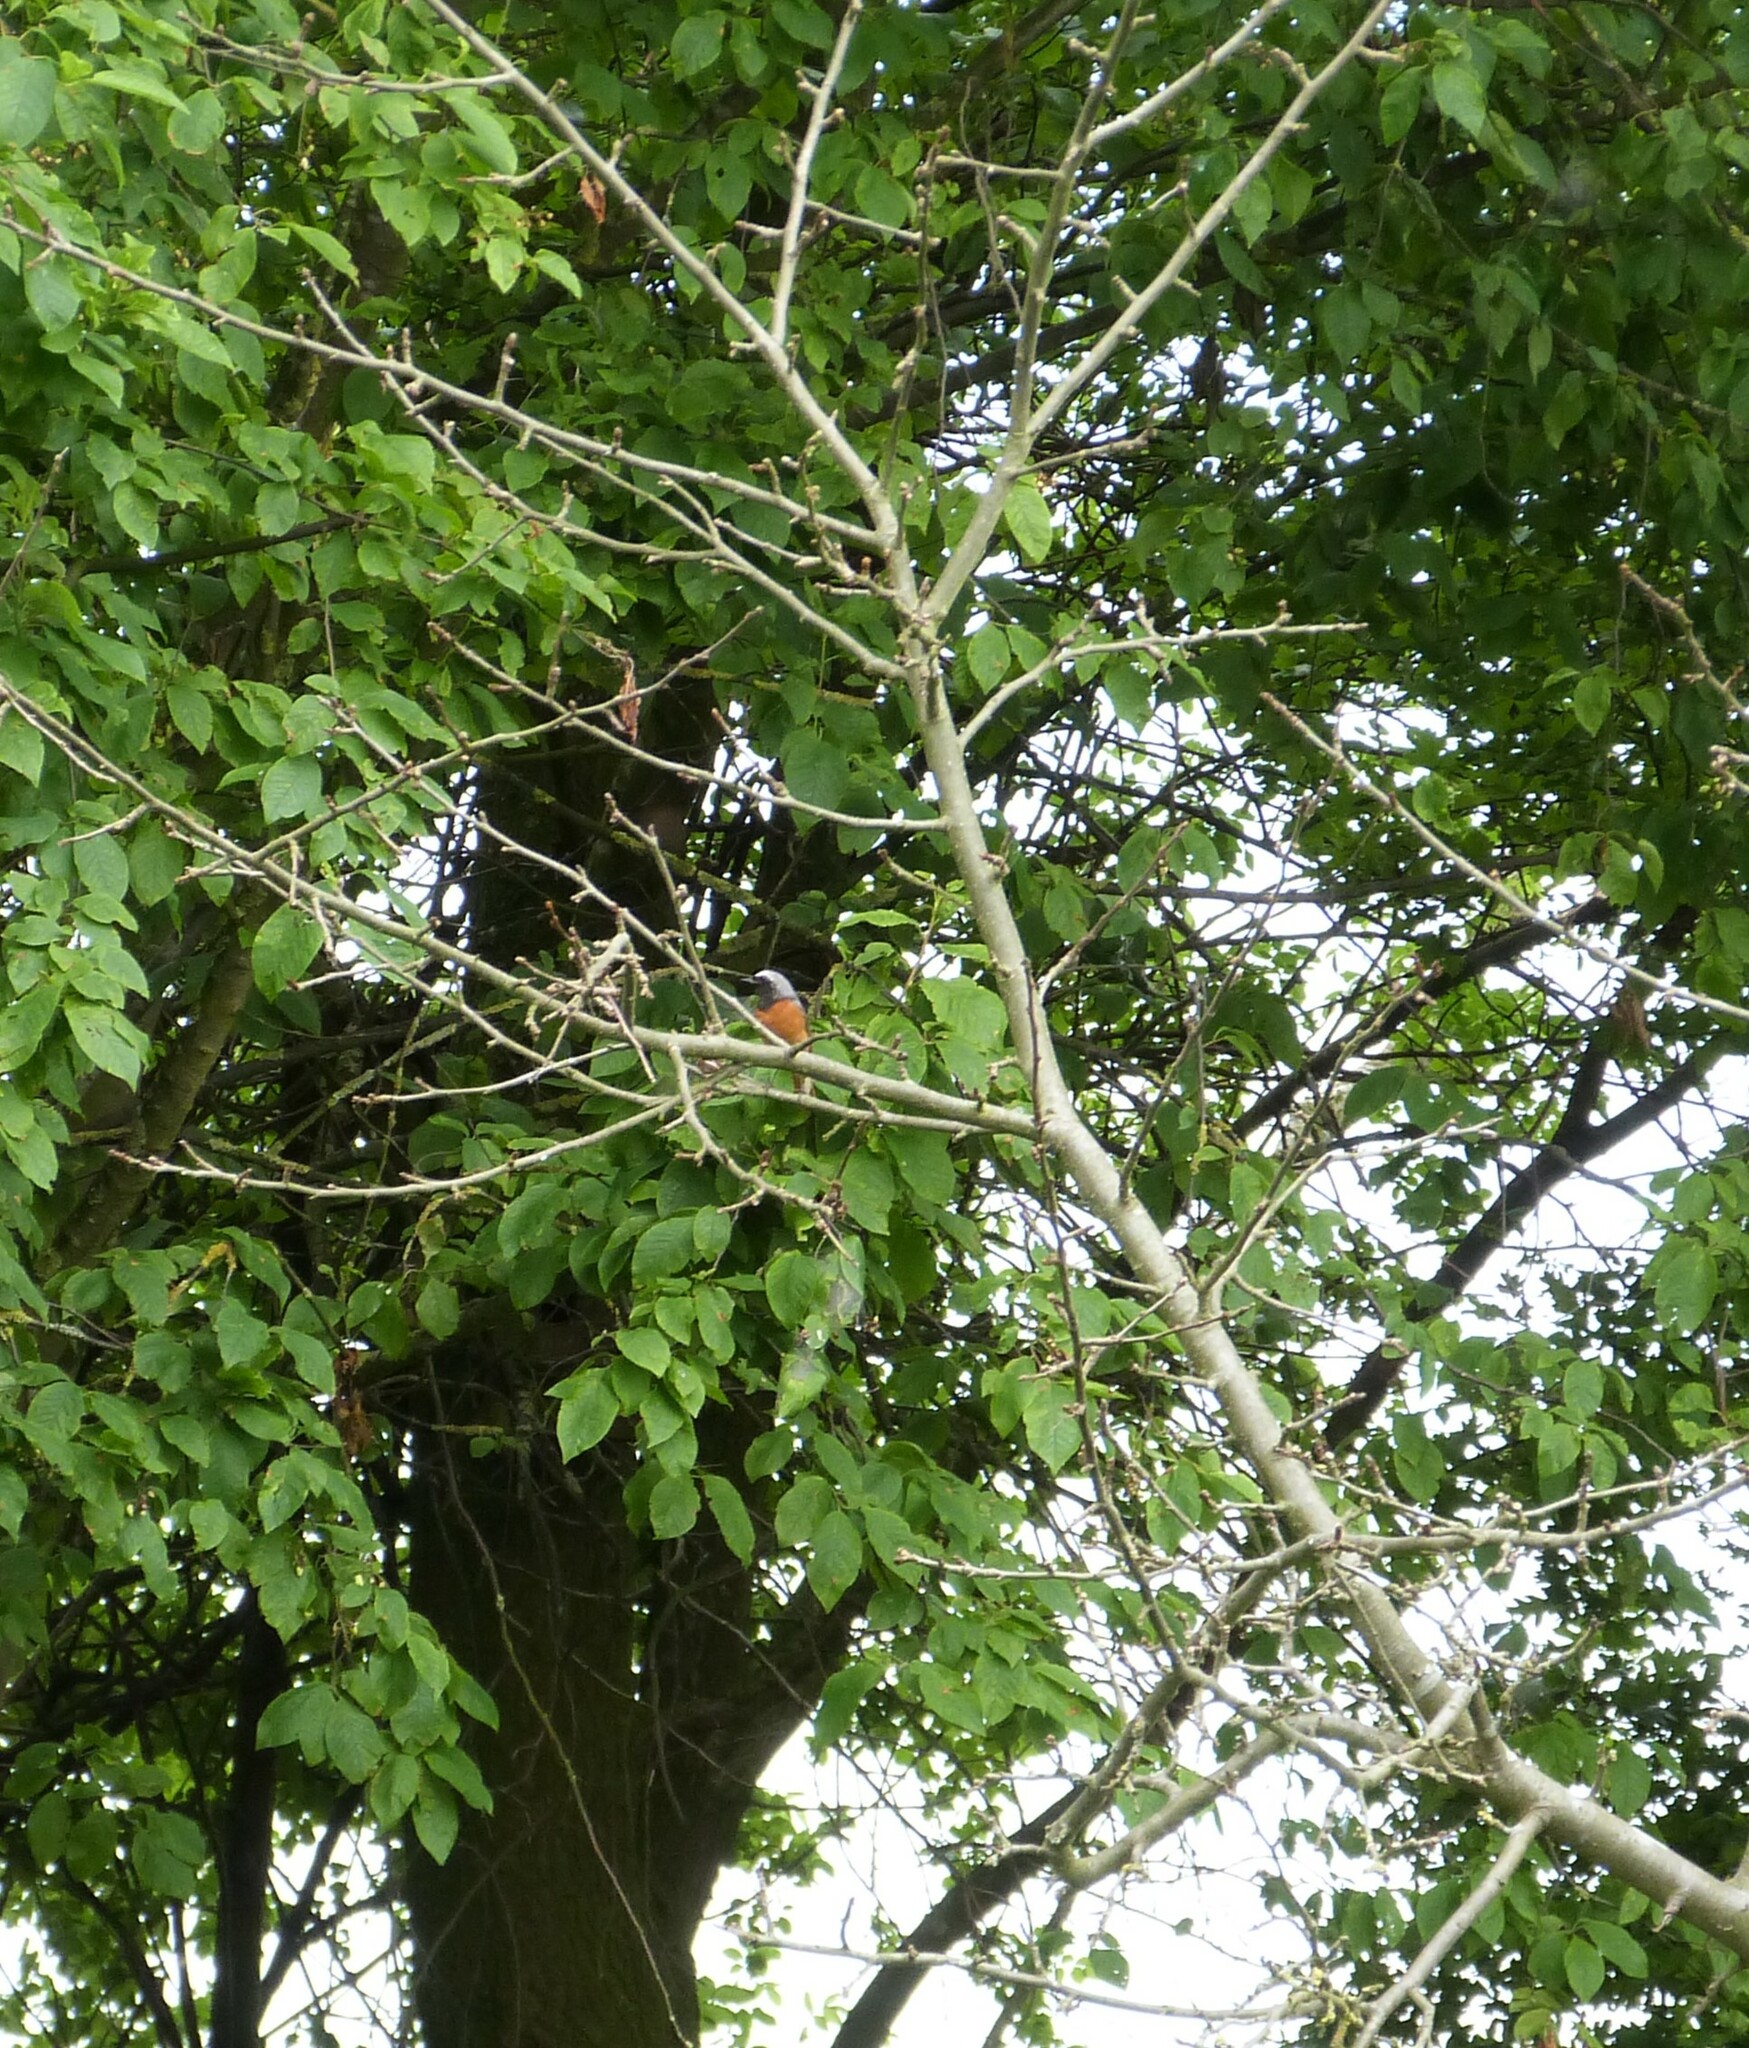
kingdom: Animalia
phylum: Chordata
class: Aves
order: Passeriformes
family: Muscicapidae
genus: Phoenicurus
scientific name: Phoenicurus phoenicurus
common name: Common redstart
